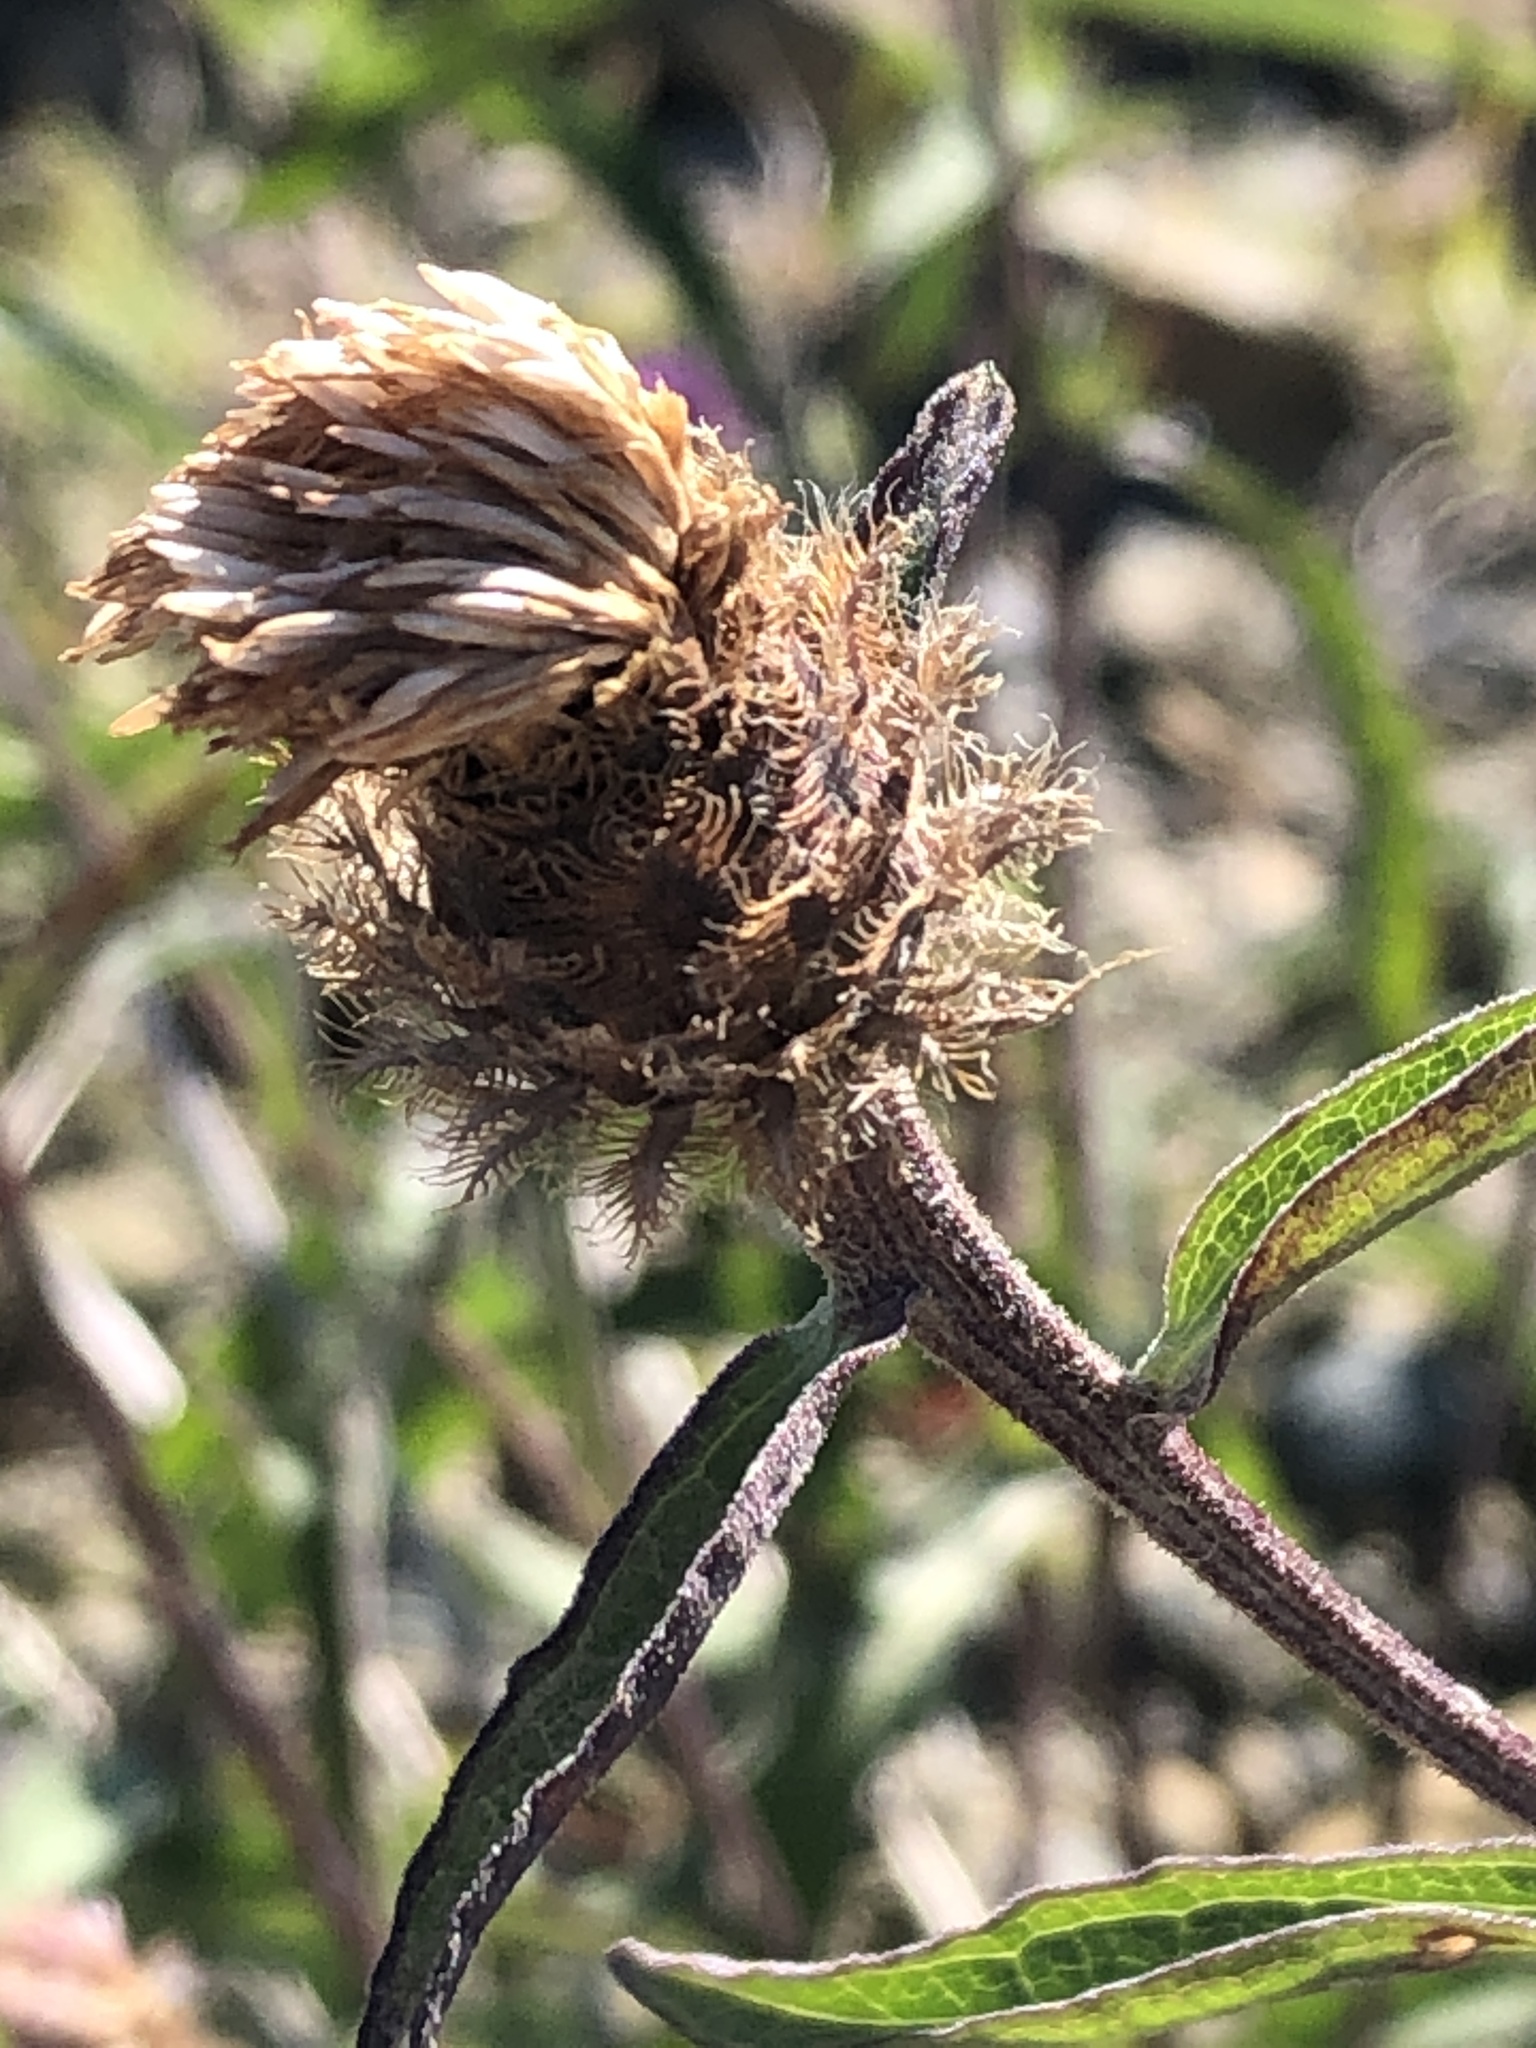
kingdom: Plantae
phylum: Tracheophyta
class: Magnoliopsida
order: Asterales
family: Asteraceae
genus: Centaurea
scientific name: Centaurea nigra
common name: Lesser knapweed
